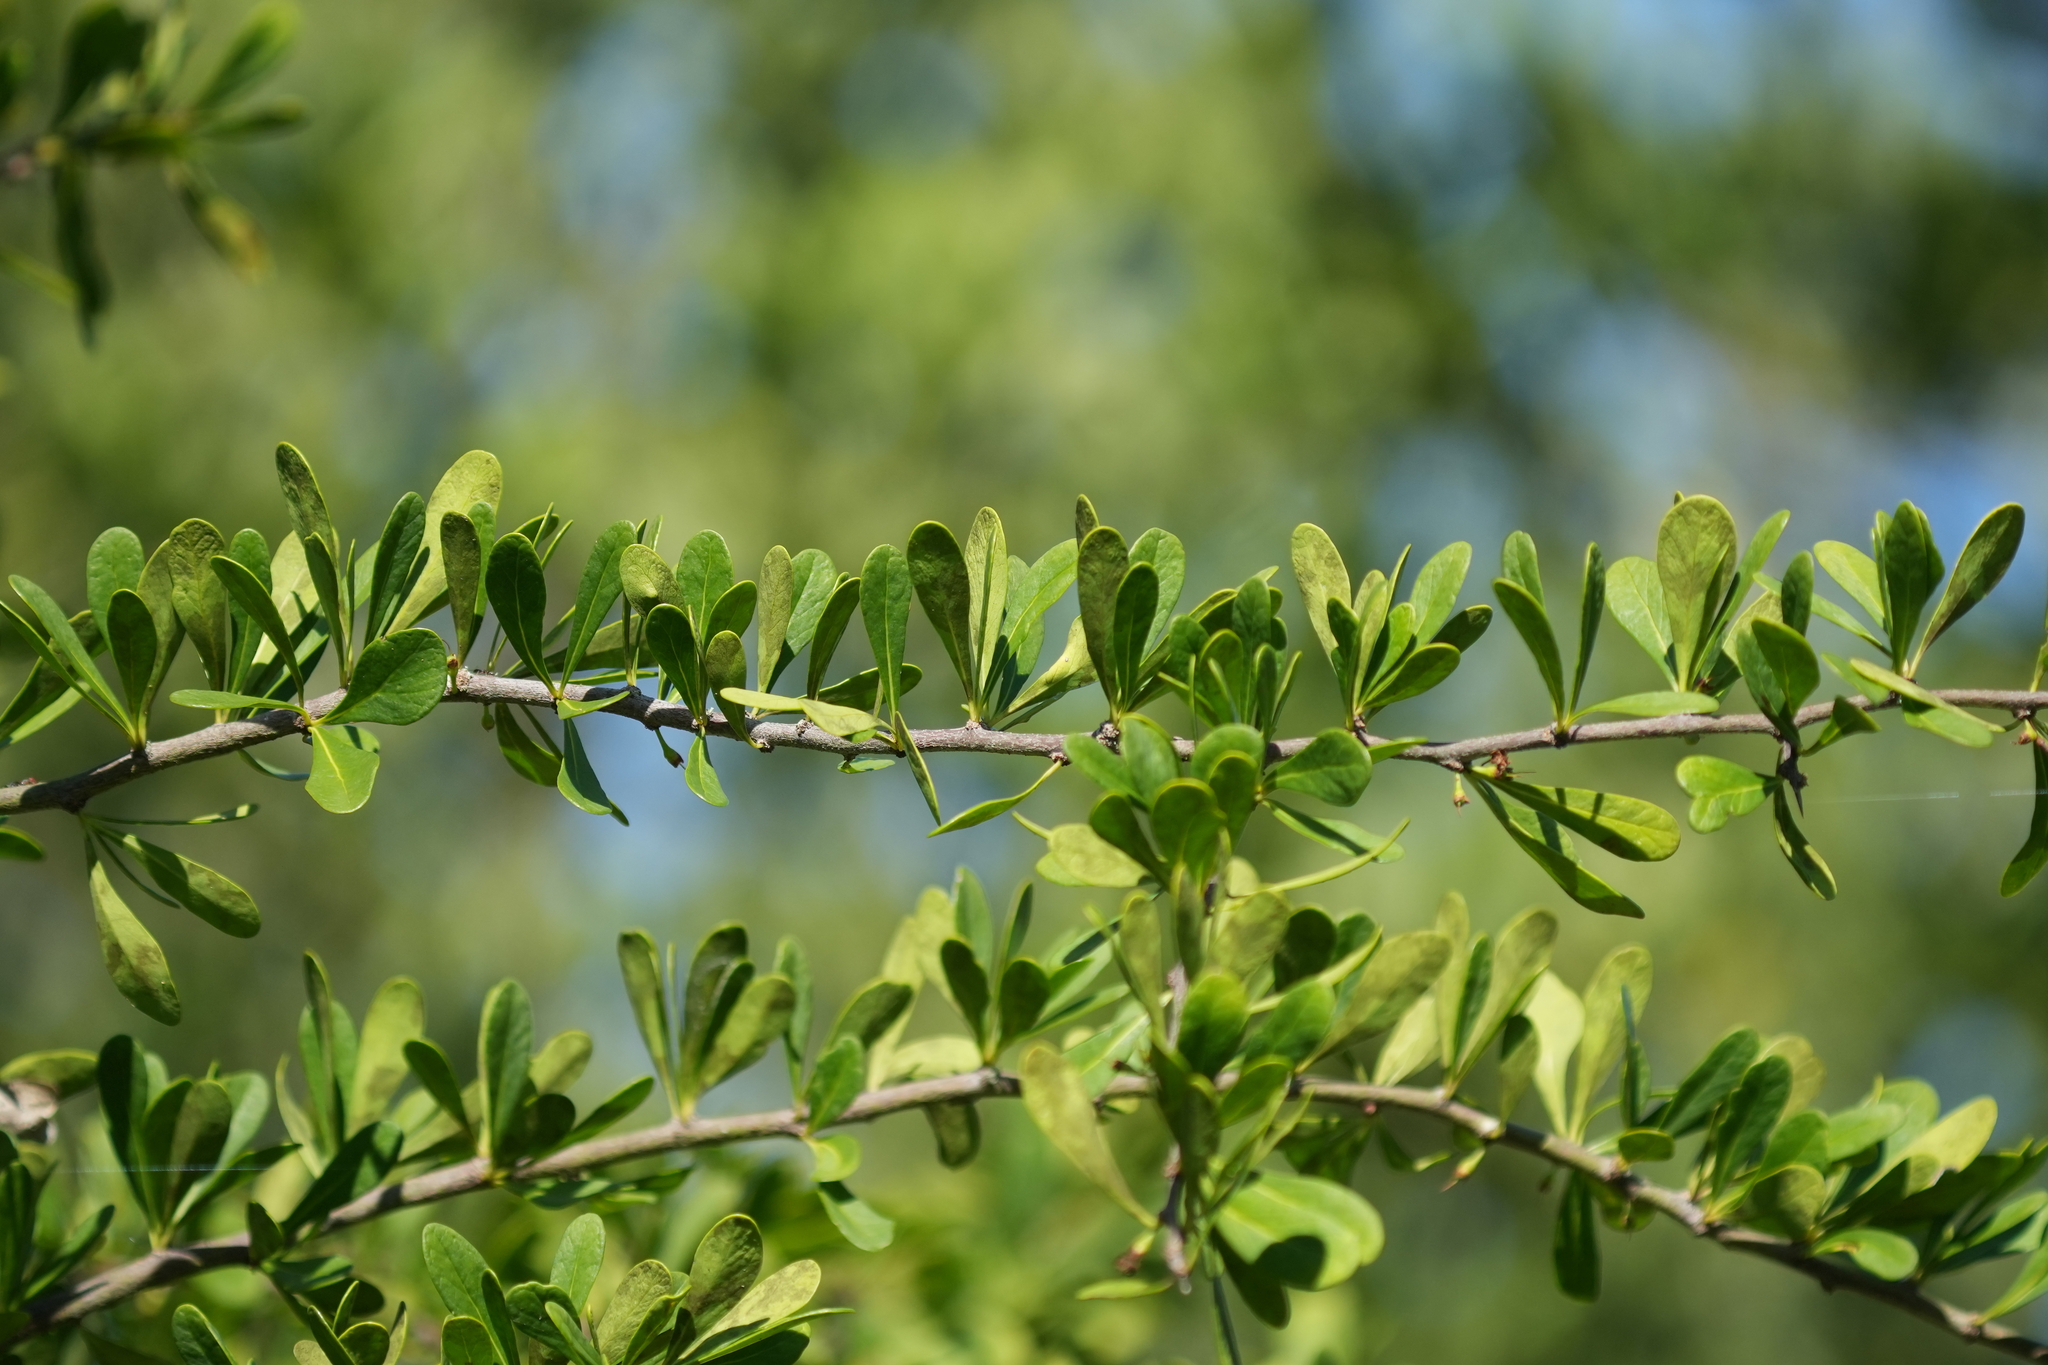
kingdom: Plantae
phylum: Tracheophyta
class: Magnoliopsida
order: Ericales
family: Sapotaceae
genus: Sideroxylon
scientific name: Sideroxylon celastrinum
